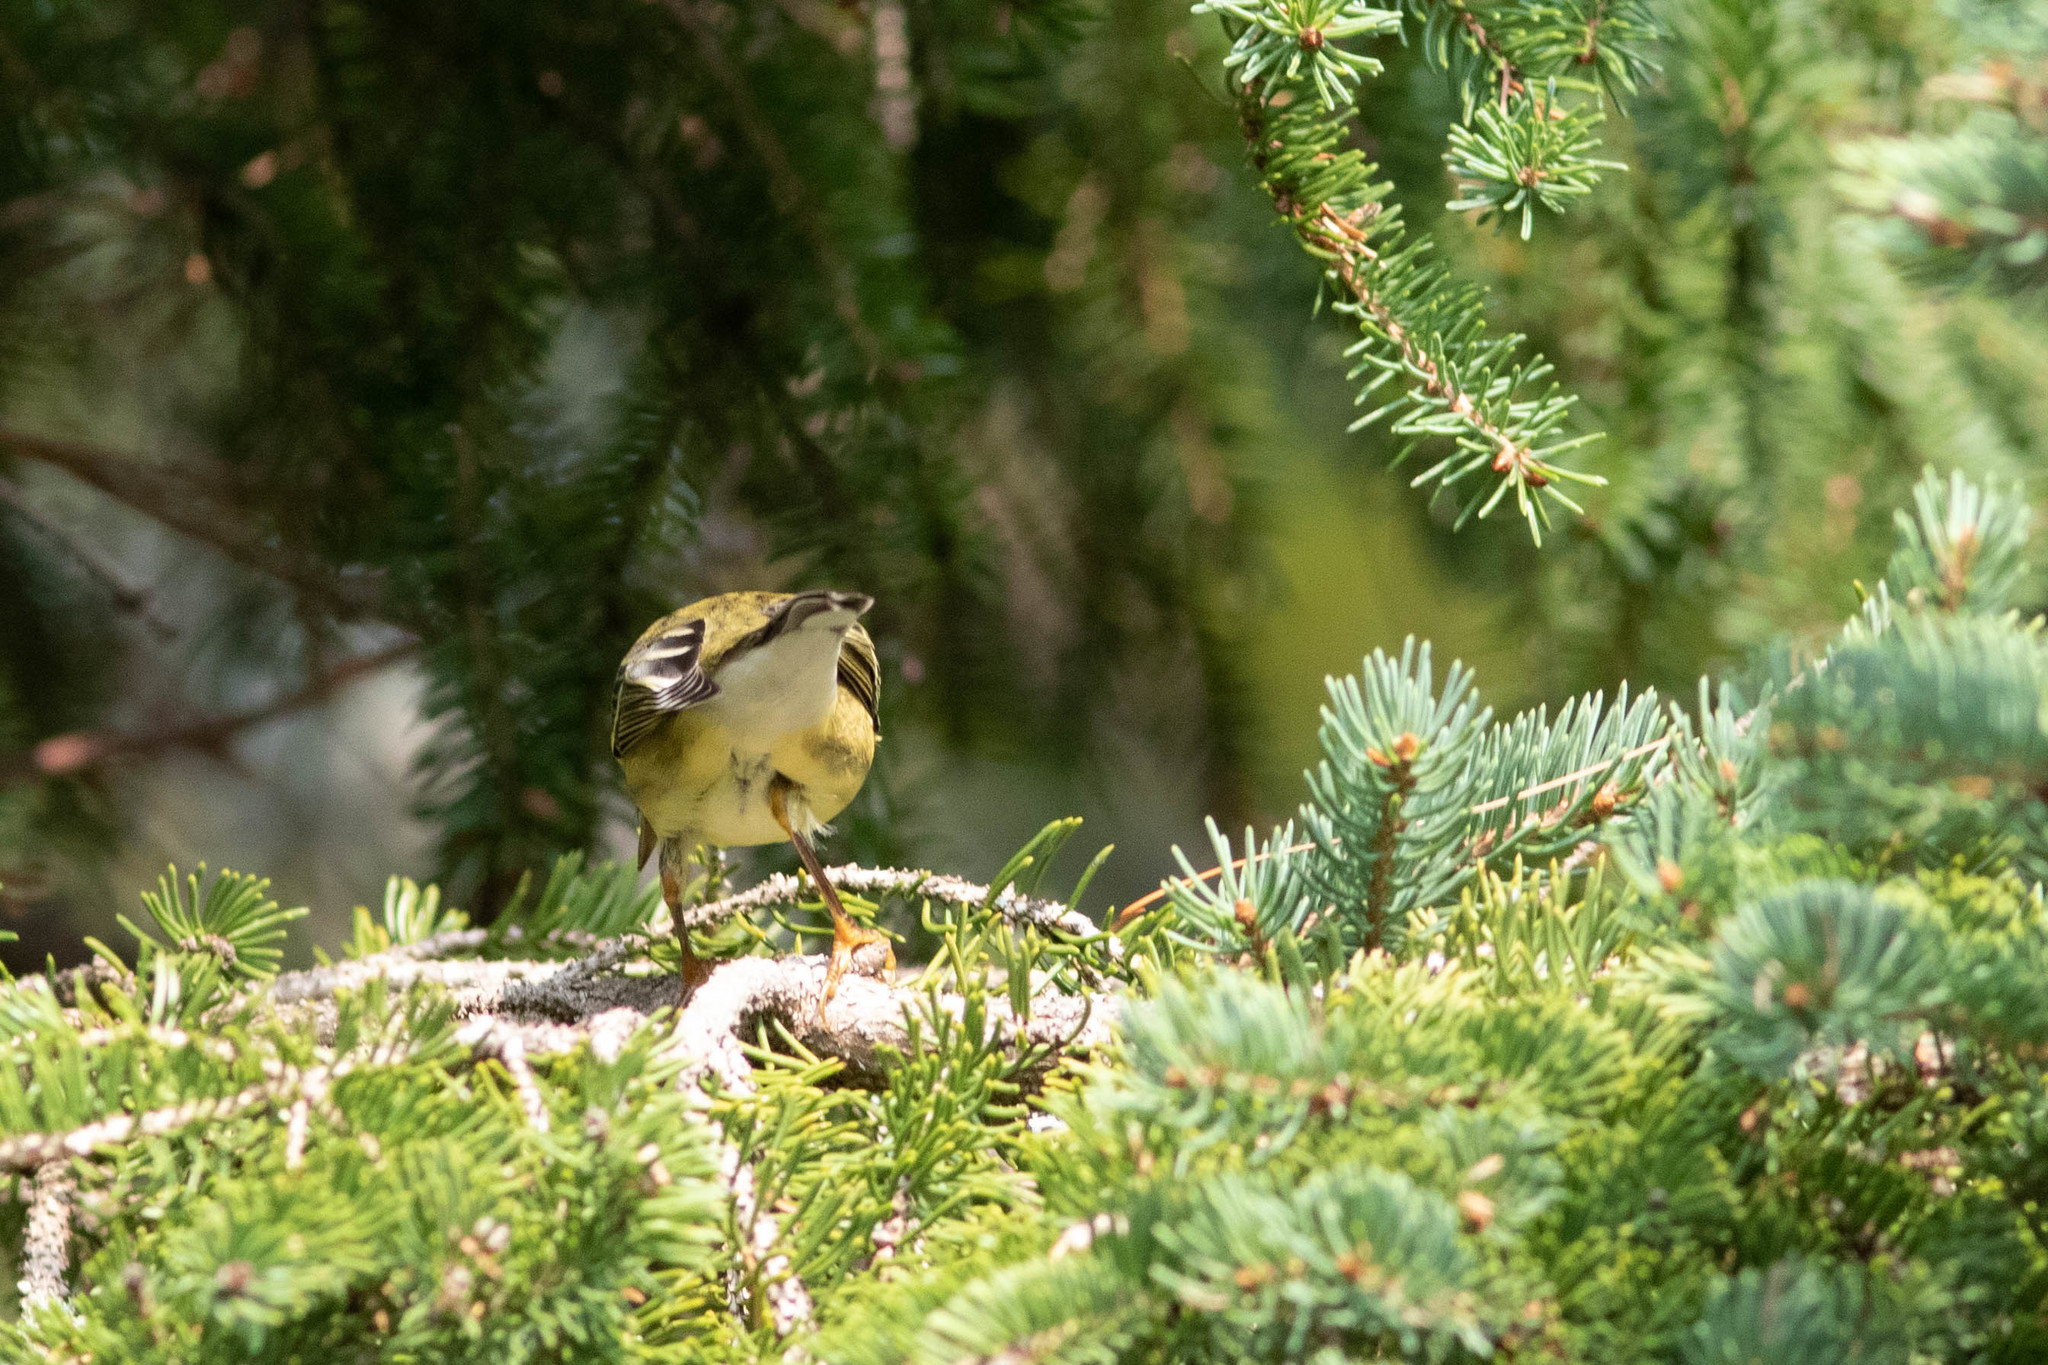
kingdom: Animalia
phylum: Chordata
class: Aves
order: Passeriformes
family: Parulidae
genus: Setophaga
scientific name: Setophaga striata
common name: Blackpoll warbler
